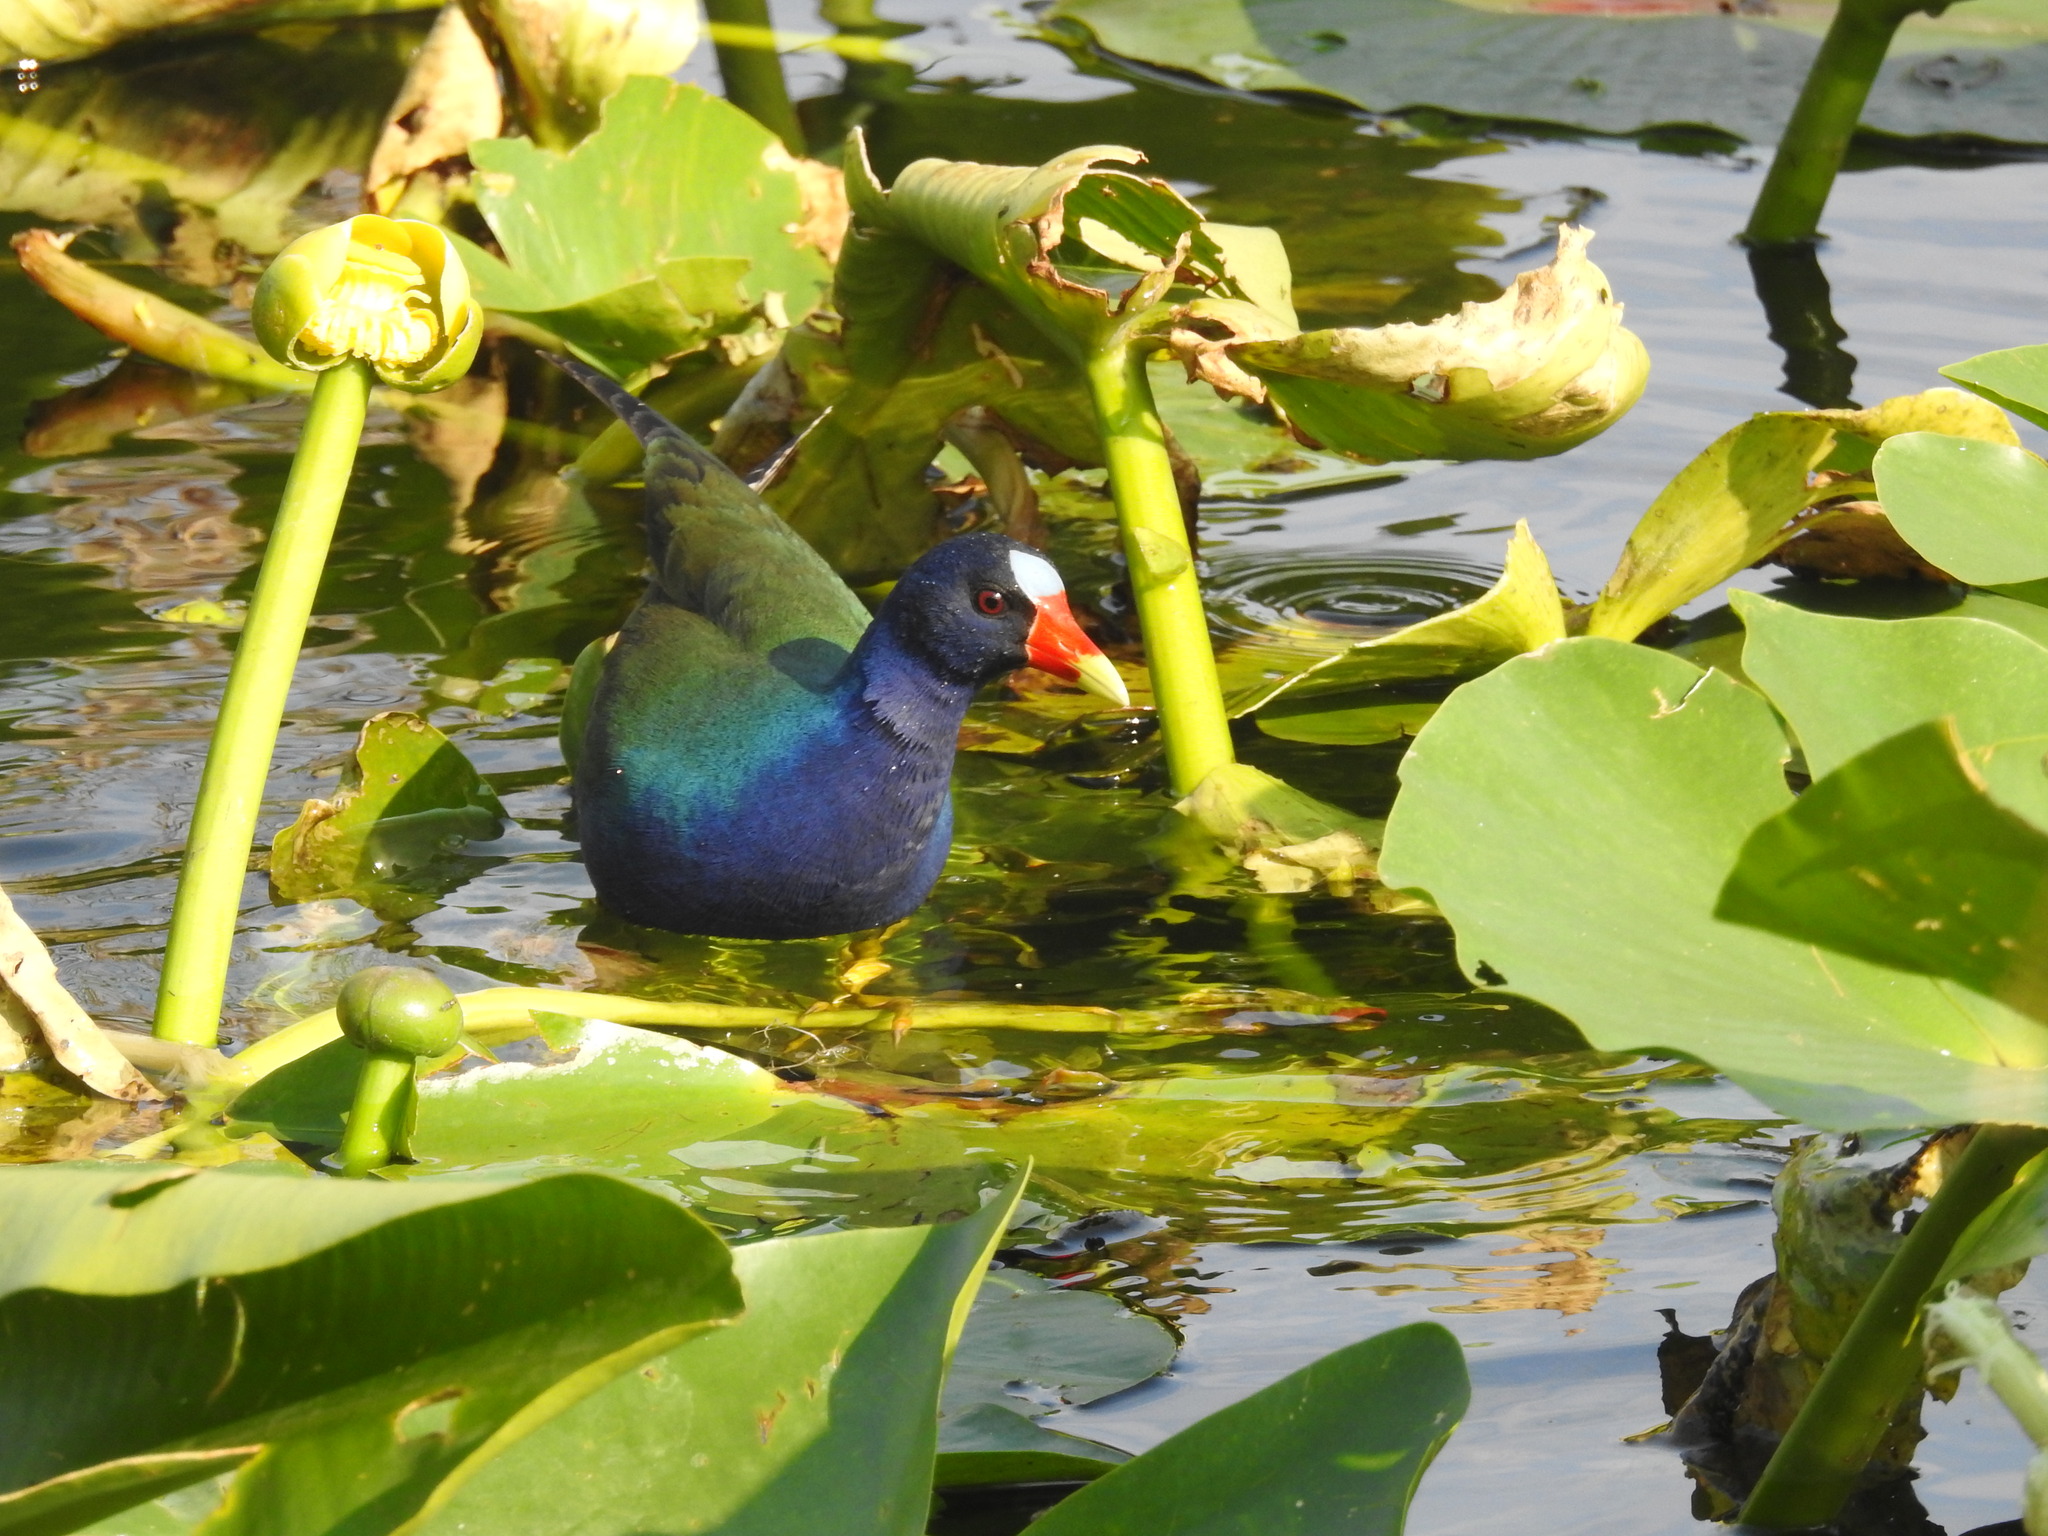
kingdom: Animalia
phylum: Chordata
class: Aves
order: Gruiformes
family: Rallidae
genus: Porphyrio
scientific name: Porphyrio martinica
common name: Purple gallinule
